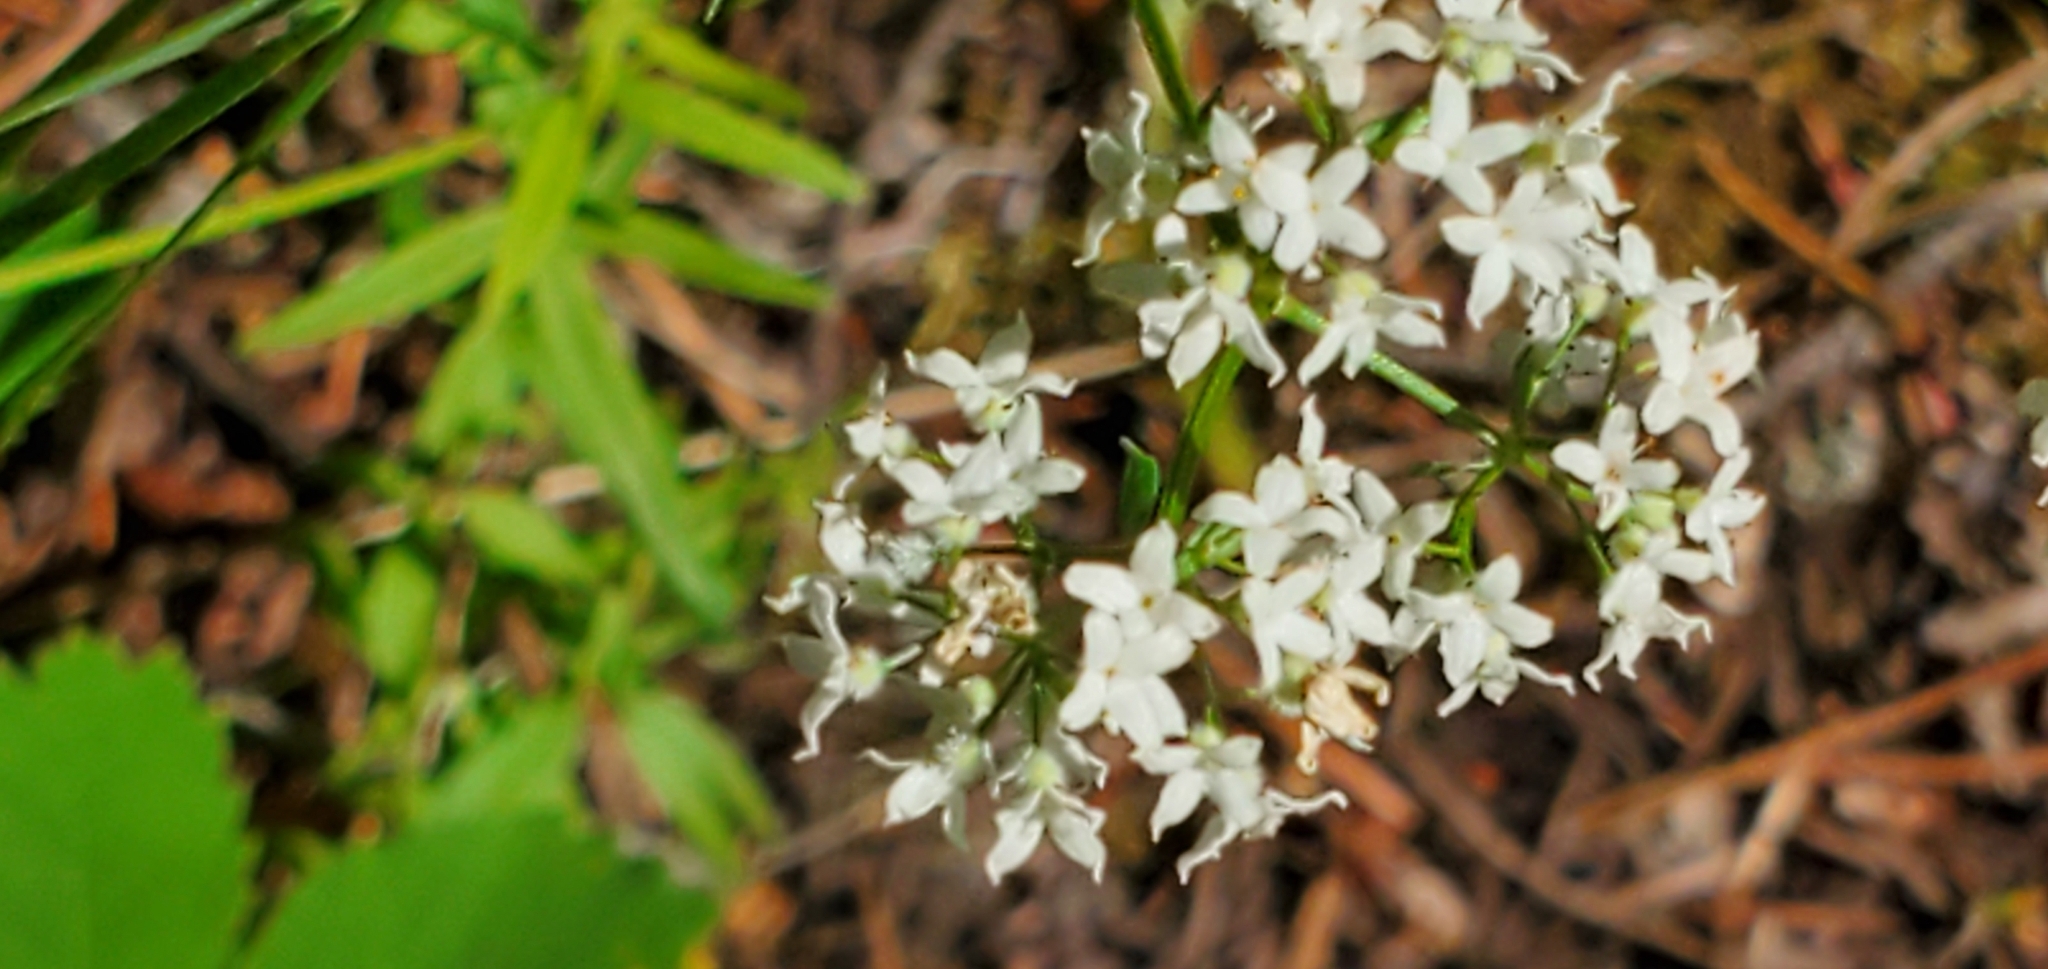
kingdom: Plantae
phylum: Tracheophyta
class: Magnoliopsida
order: Gentianales
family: Rubiaceae
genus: Galium
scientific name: Galium boreale
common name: Northern bedstraw
